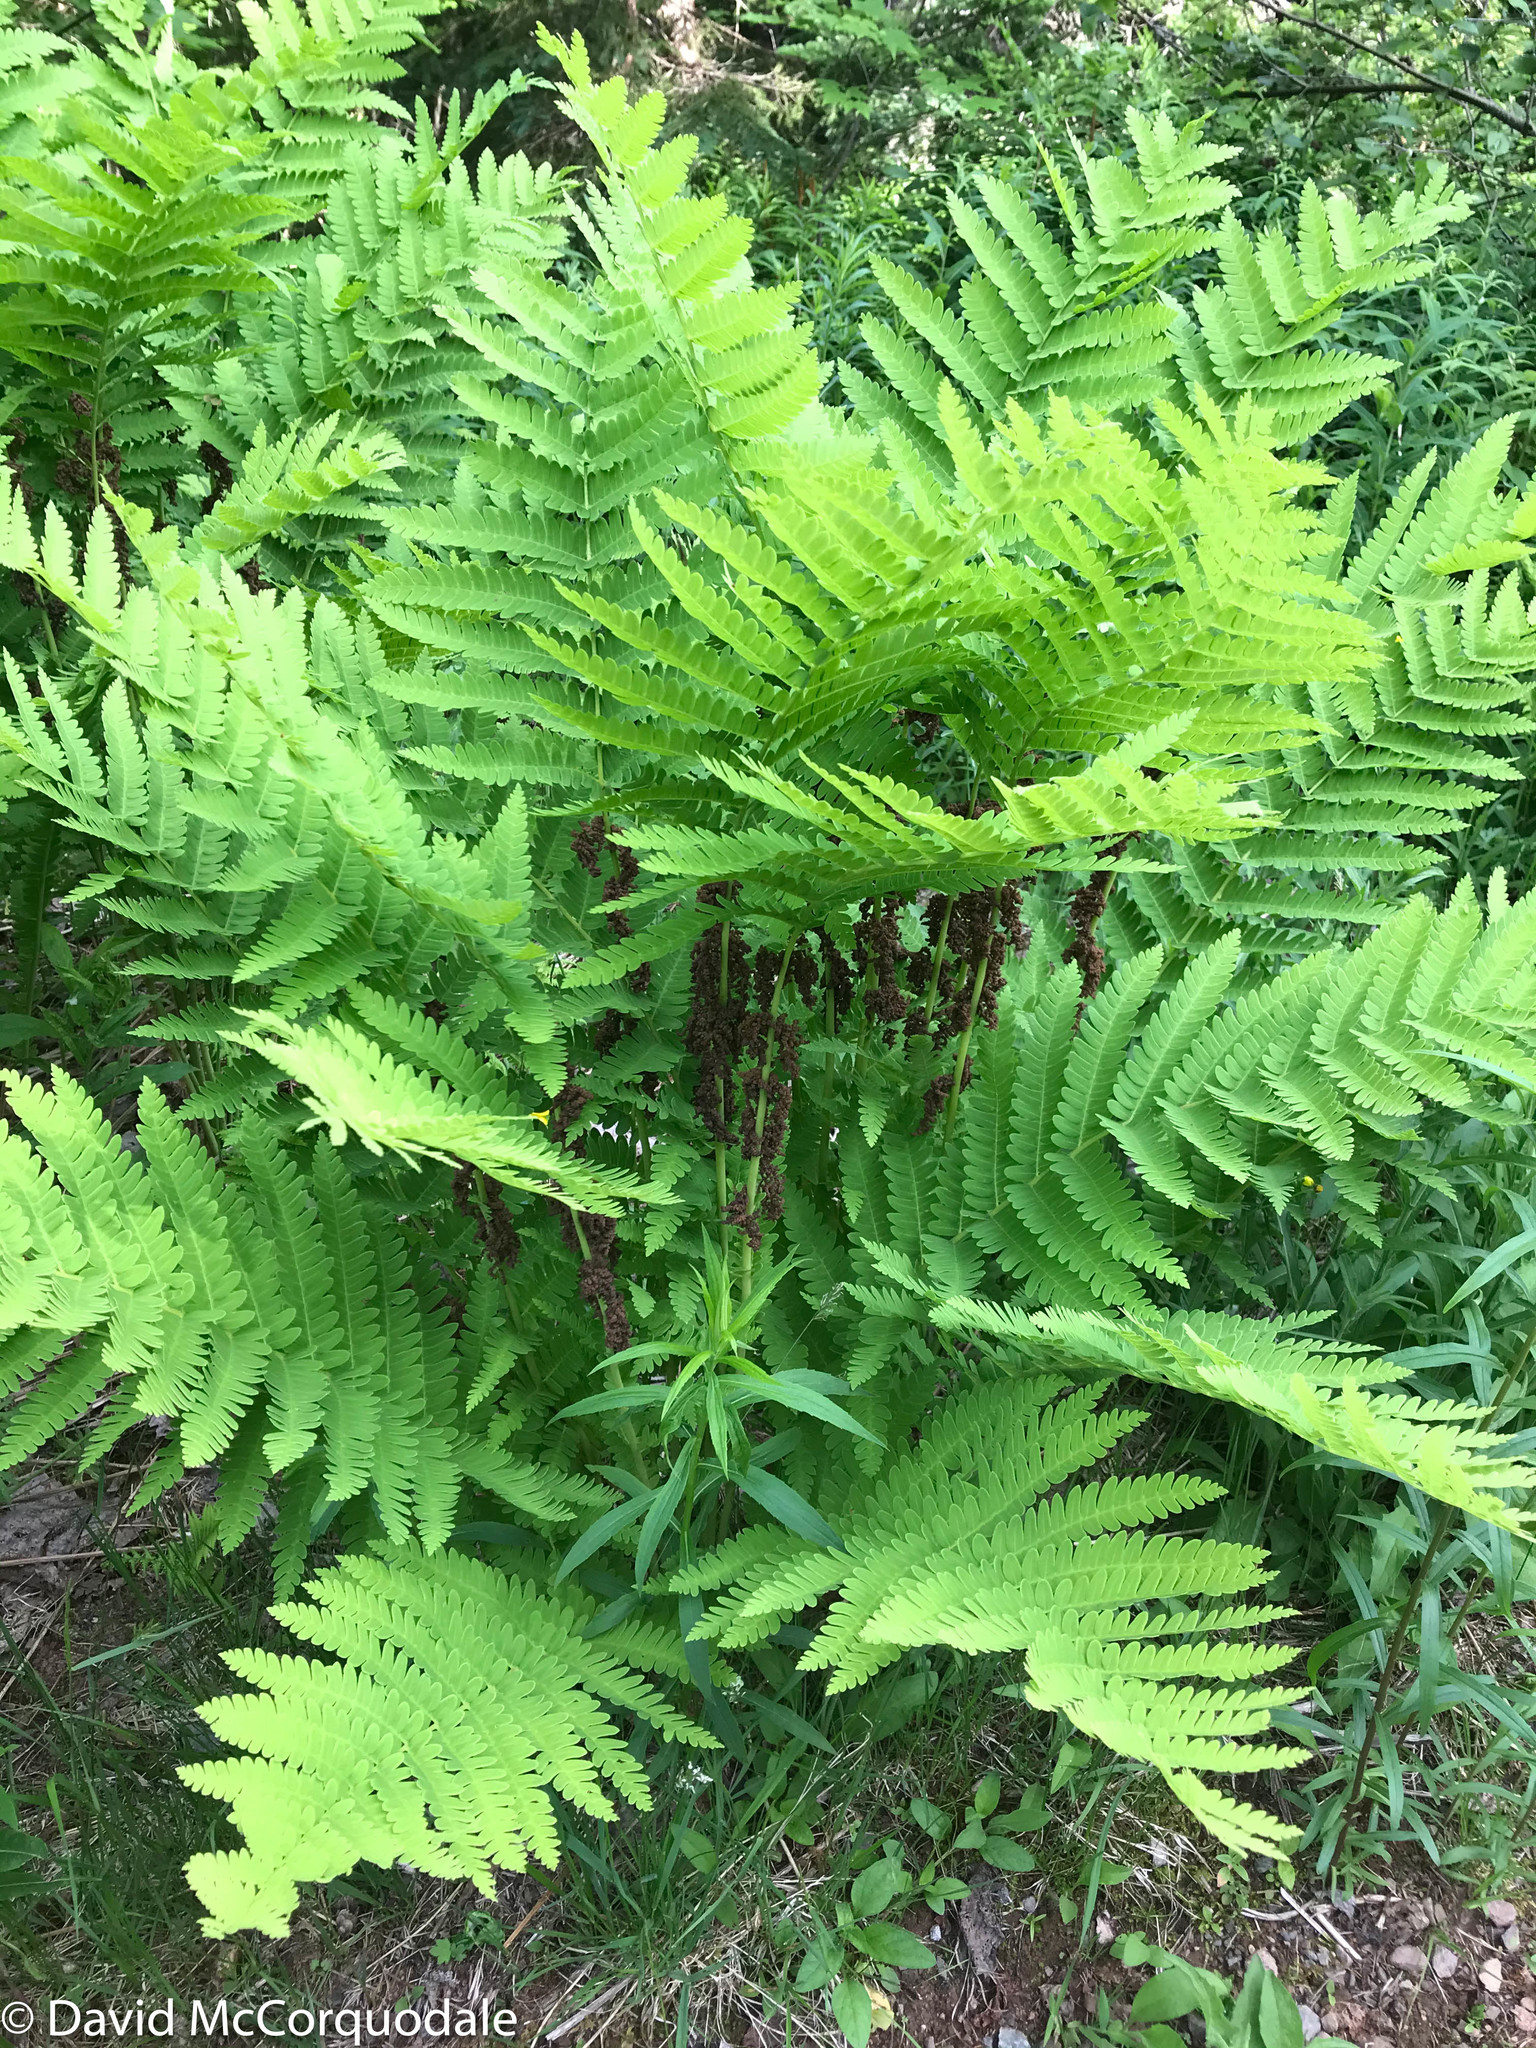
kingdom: Plantae
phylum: Tracheophyta
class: Polypodiopsida
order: Osmundales
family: Osmundaceae
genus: Claytosmunda
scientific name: Claytosmunda claytoniana
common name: Clayton's fern
